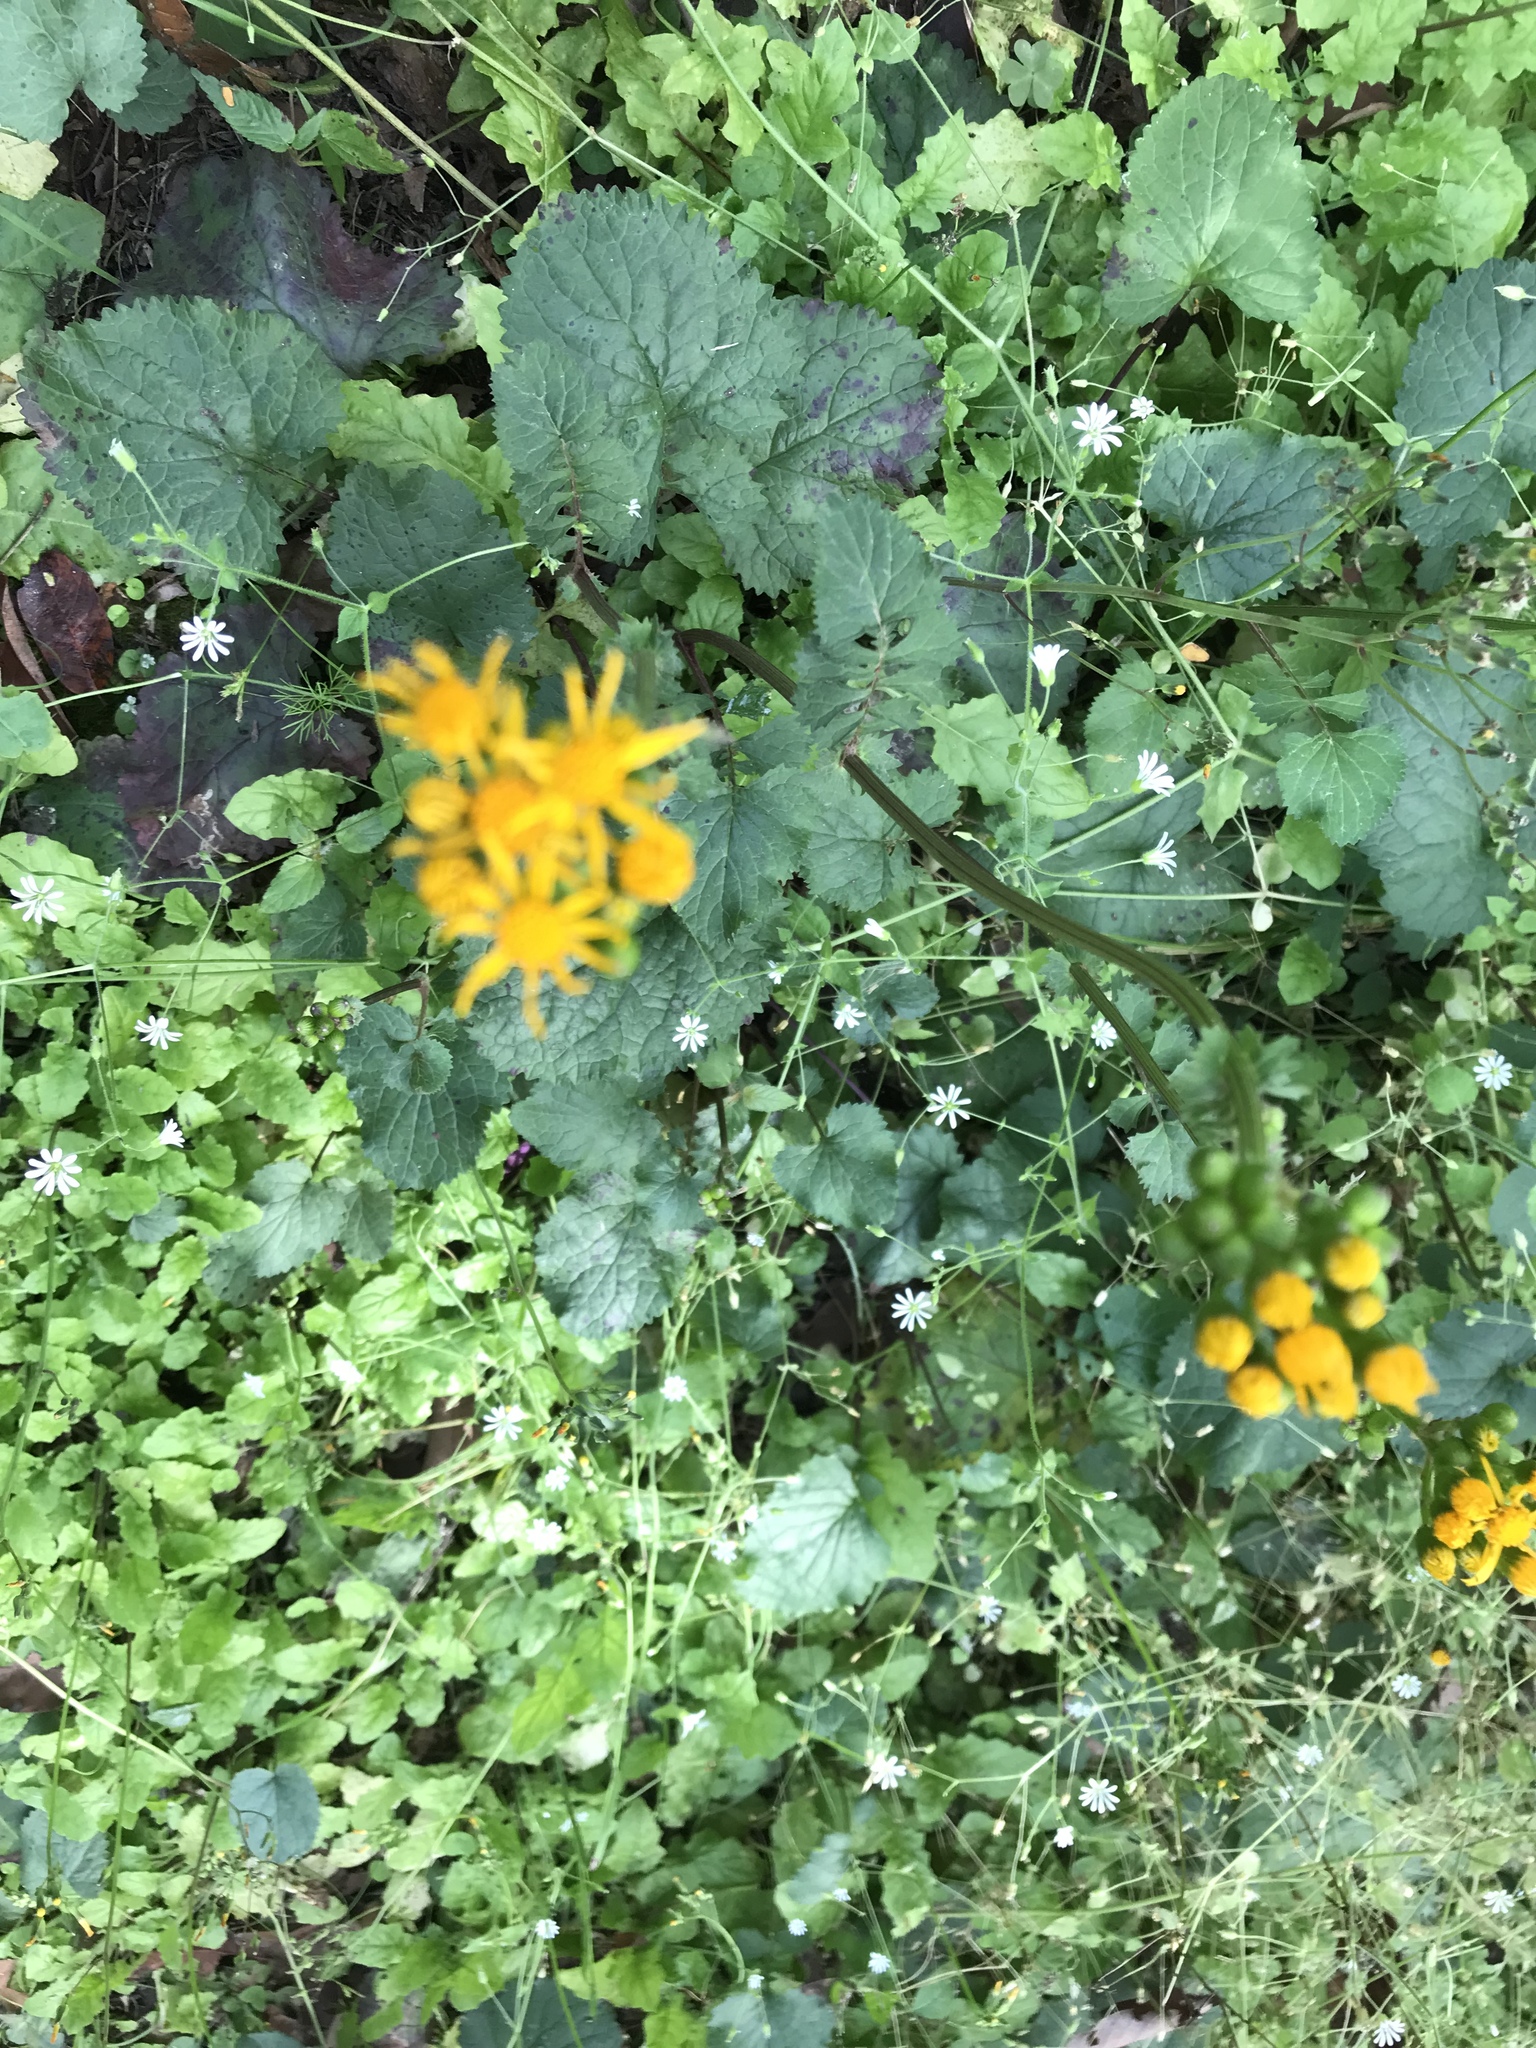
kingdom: Plantae
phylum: Tracheophyta
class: Magnoliopsida
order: Asterales
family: Asteraceae
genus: Packera
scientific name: Packera coahuilensis
